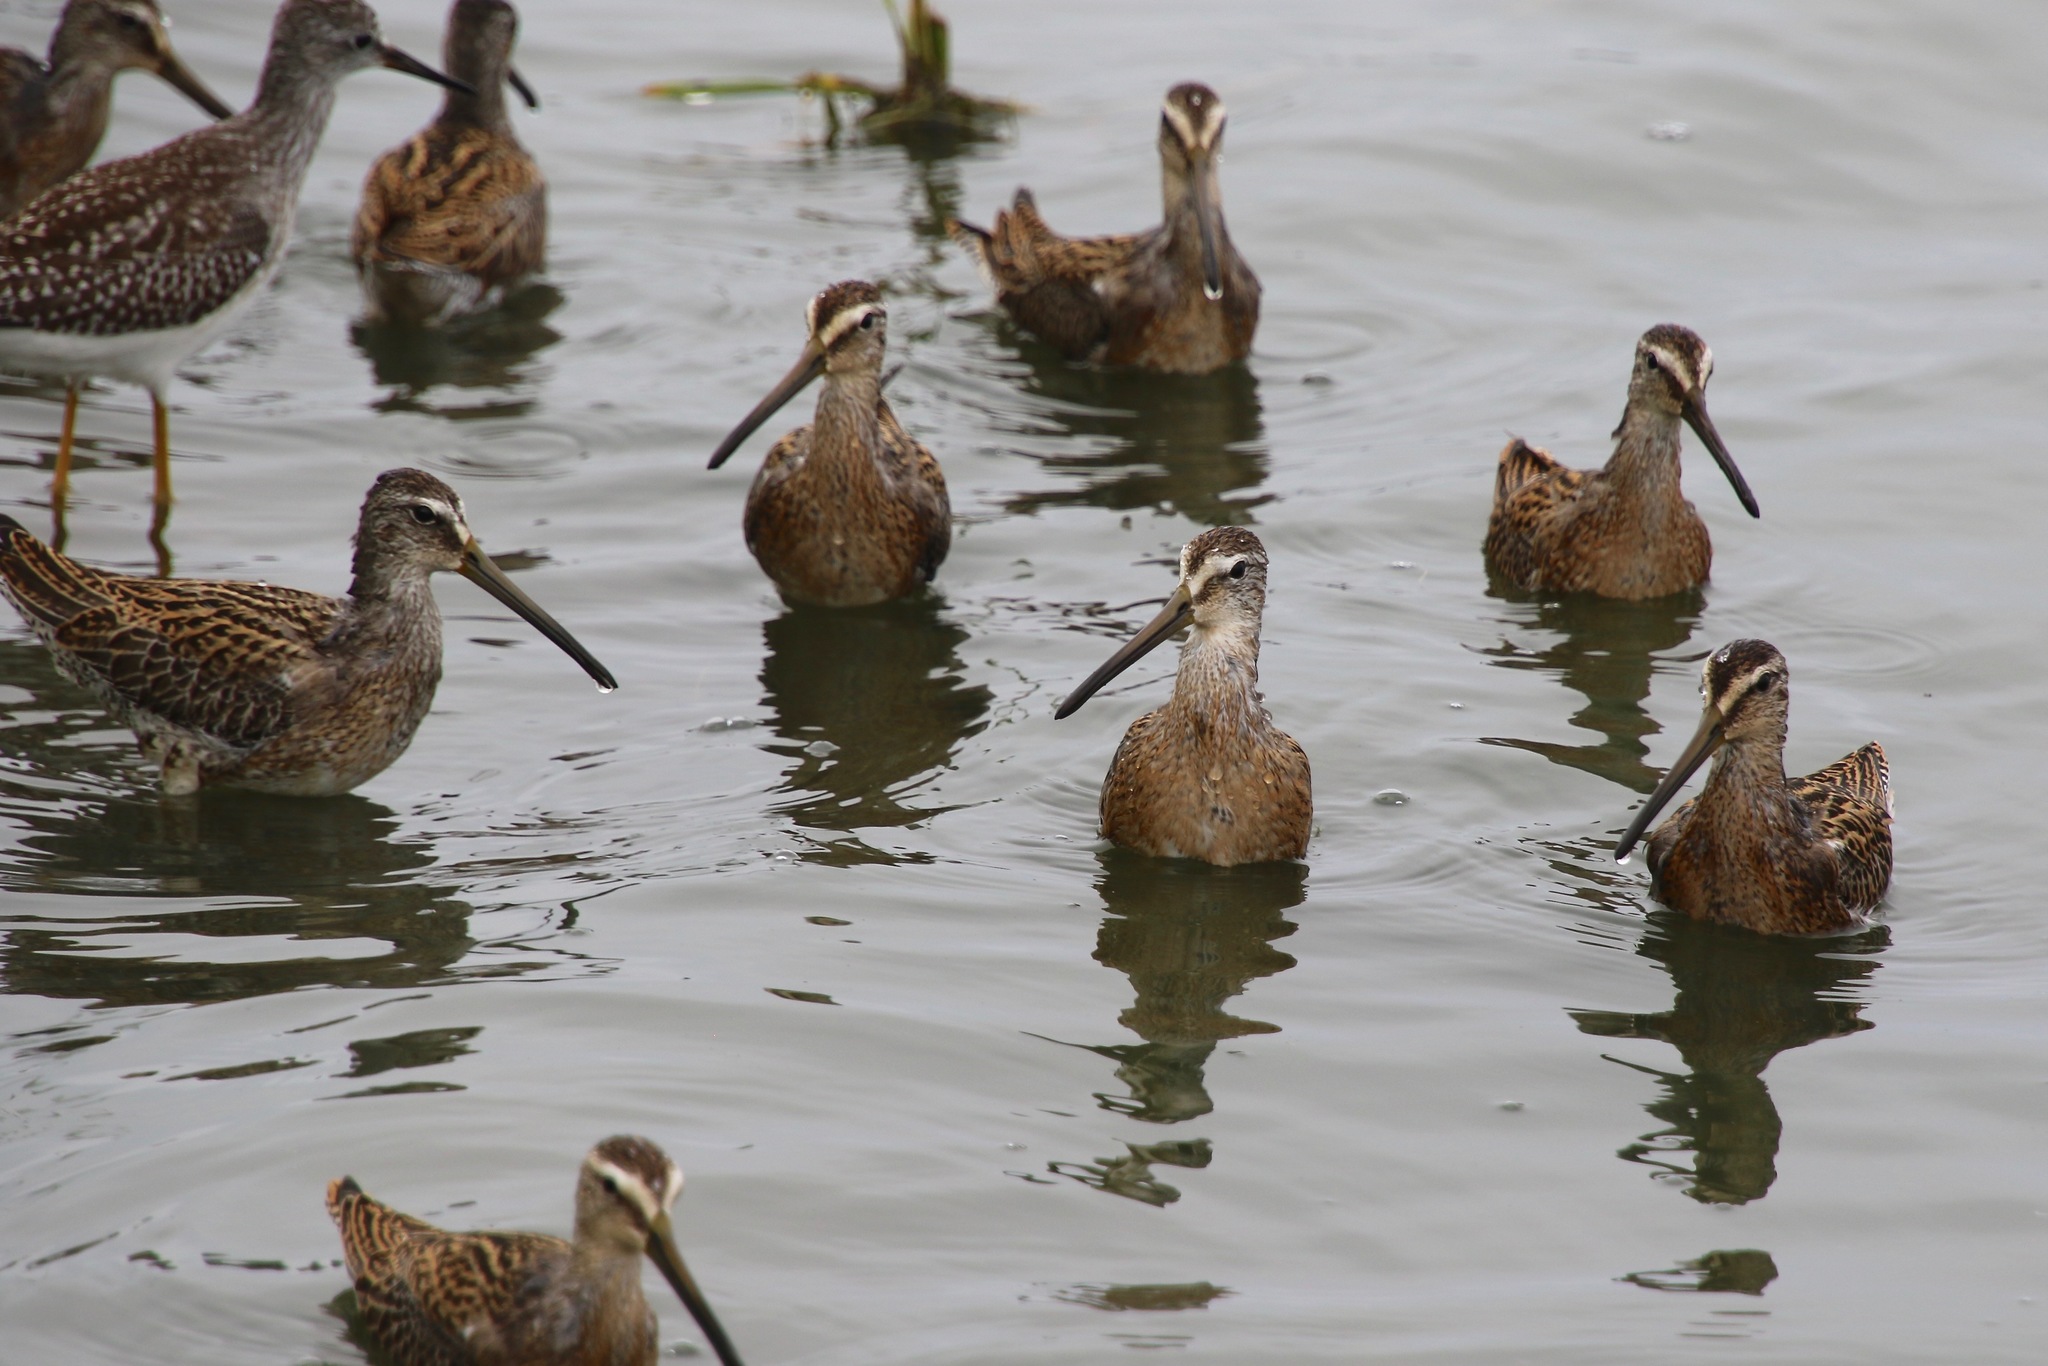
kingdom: Animalia
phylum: Chordata
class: Aves
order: Charadriiformes
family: Scolopacidae
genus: Limnodromus
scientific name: Limnodromus griseus
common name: Short-billed dowitcher
